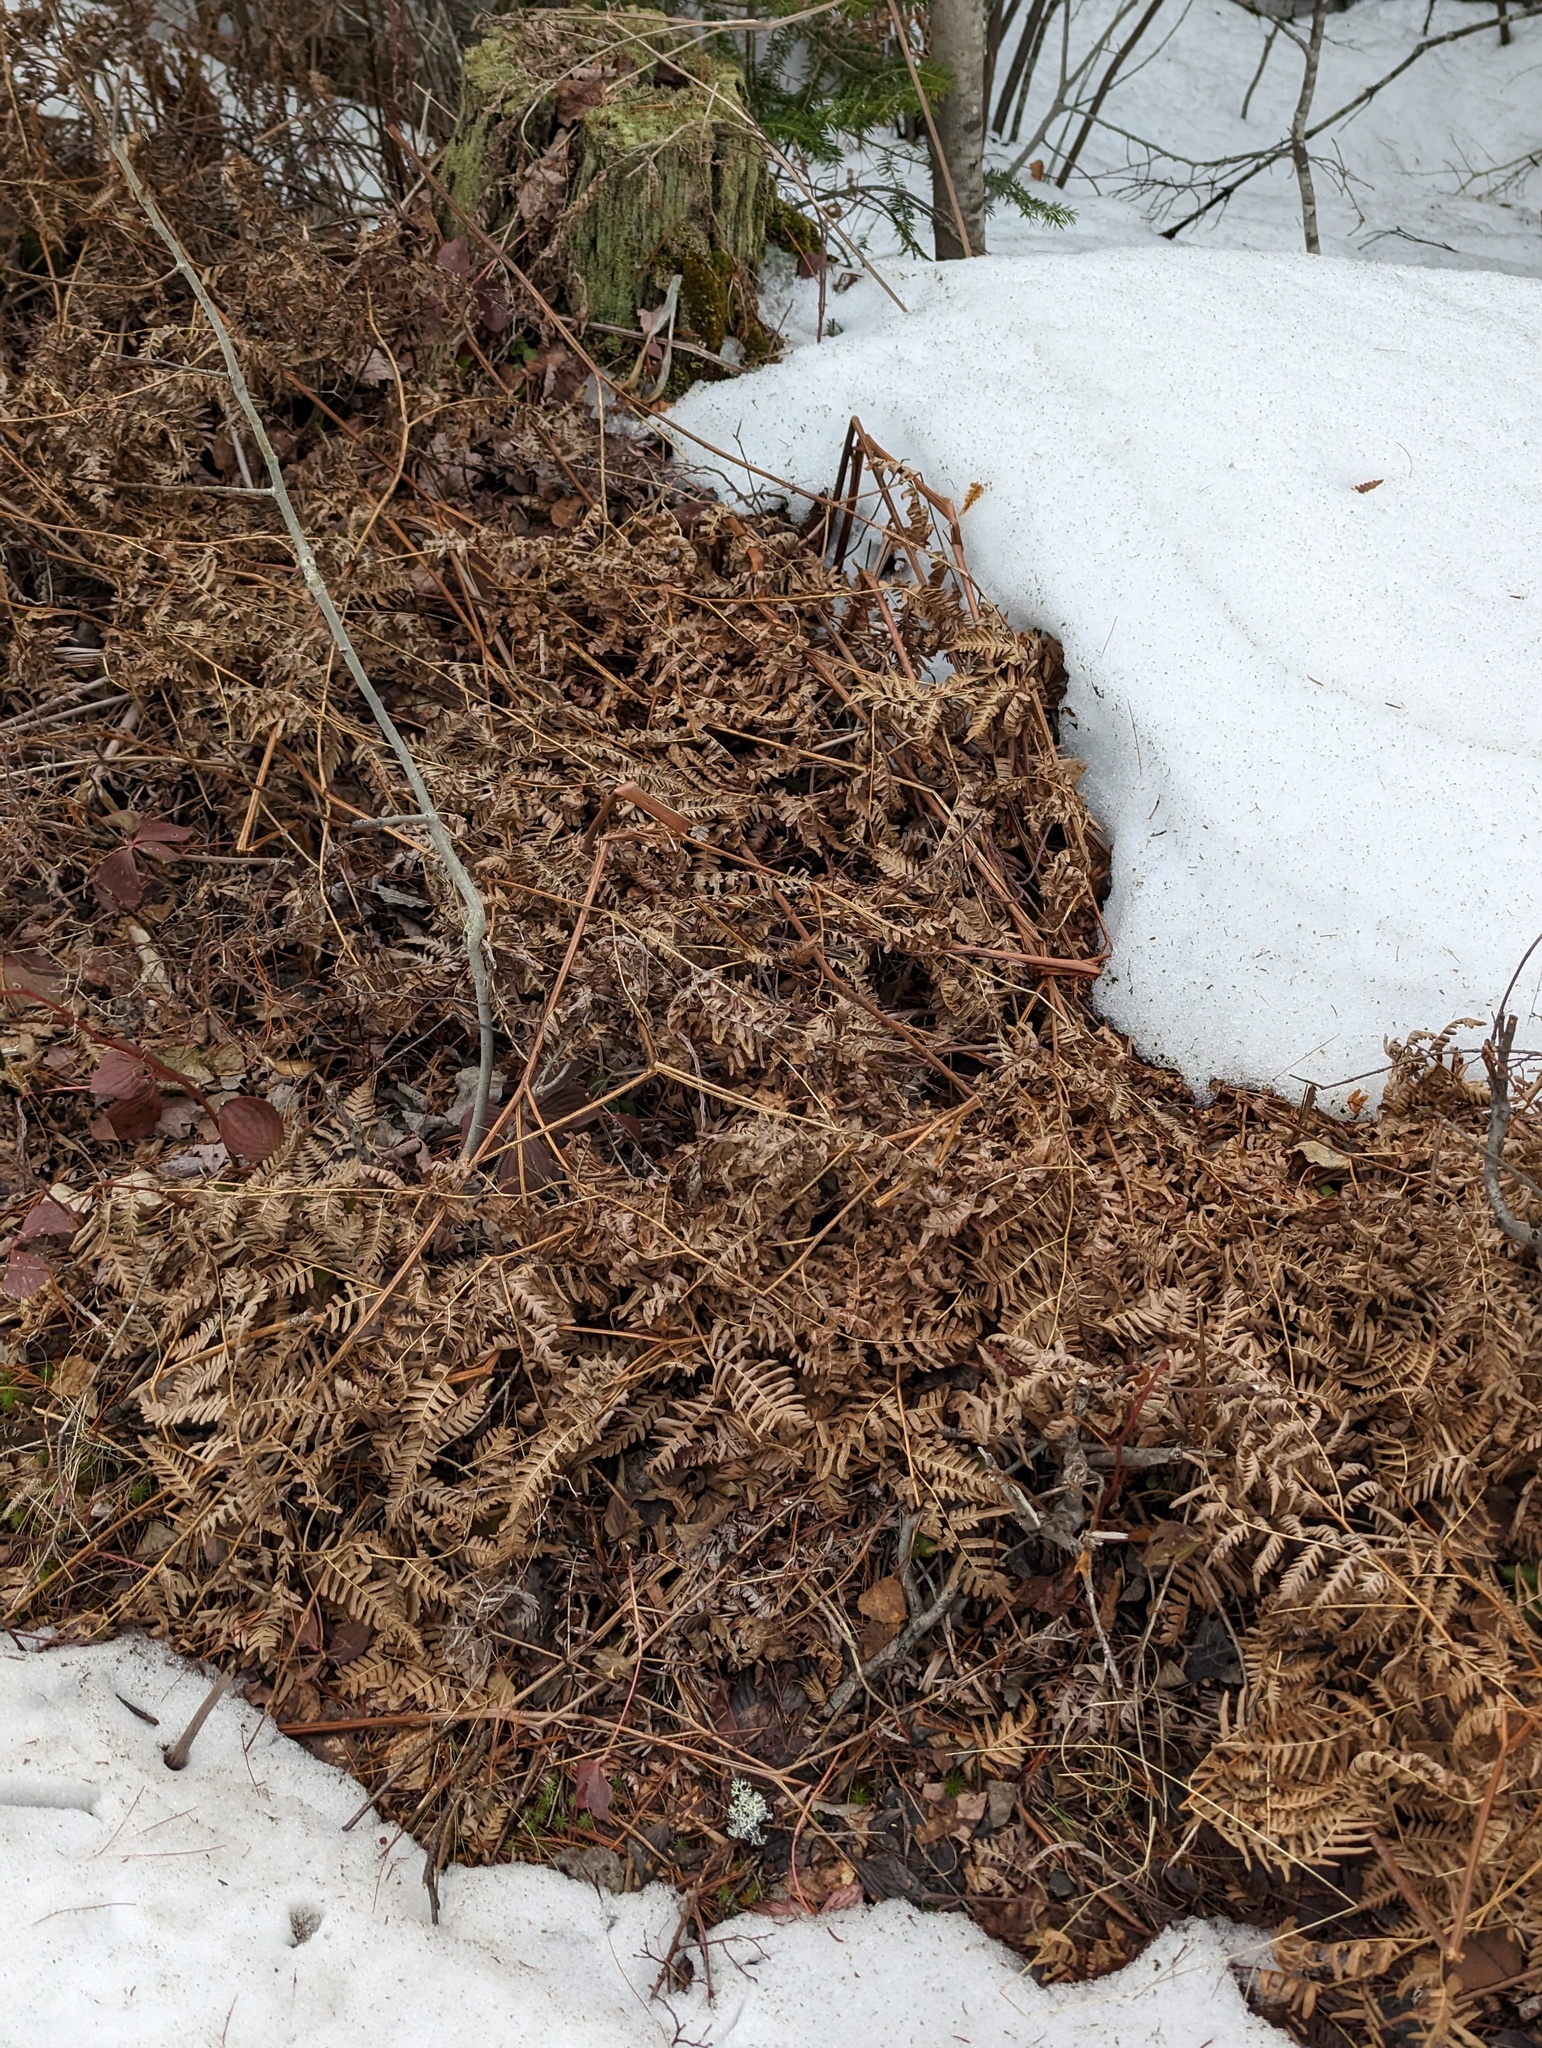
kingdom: Plantae
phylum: Tracheophyta
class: Polypodiopsida
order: Polypodiales
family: Dennstaedtiaceae
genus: Pteridium
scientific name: Pteridium aquilinum
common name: Bracken
